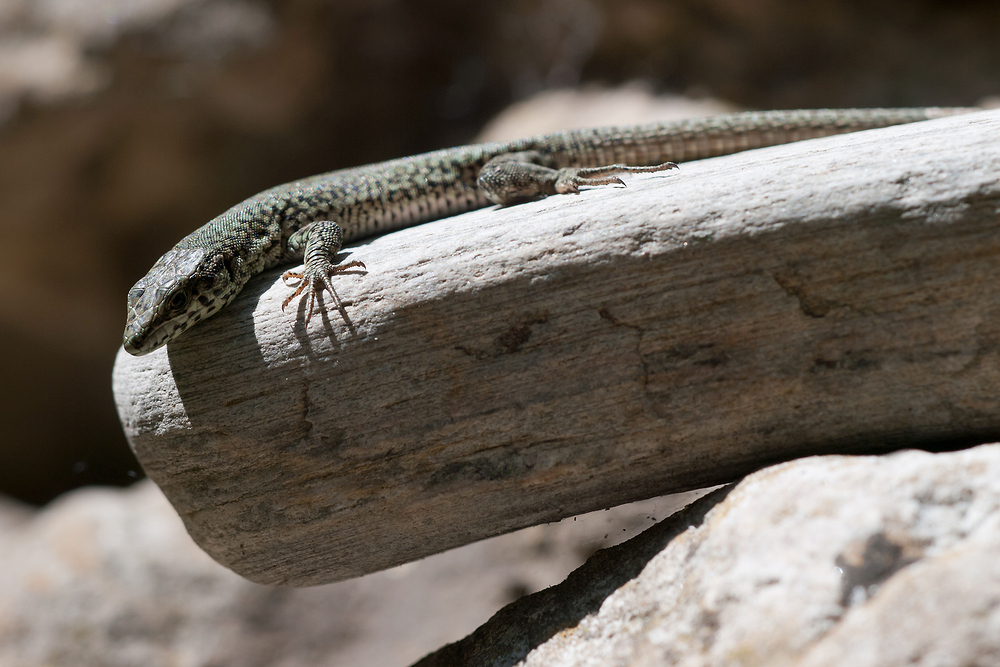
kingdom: Animalia
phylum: Chordata
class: Squamata
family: Lacertidae
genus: Podarcis
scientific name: Podarcis liolepis
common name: Catalonian wall lizard
